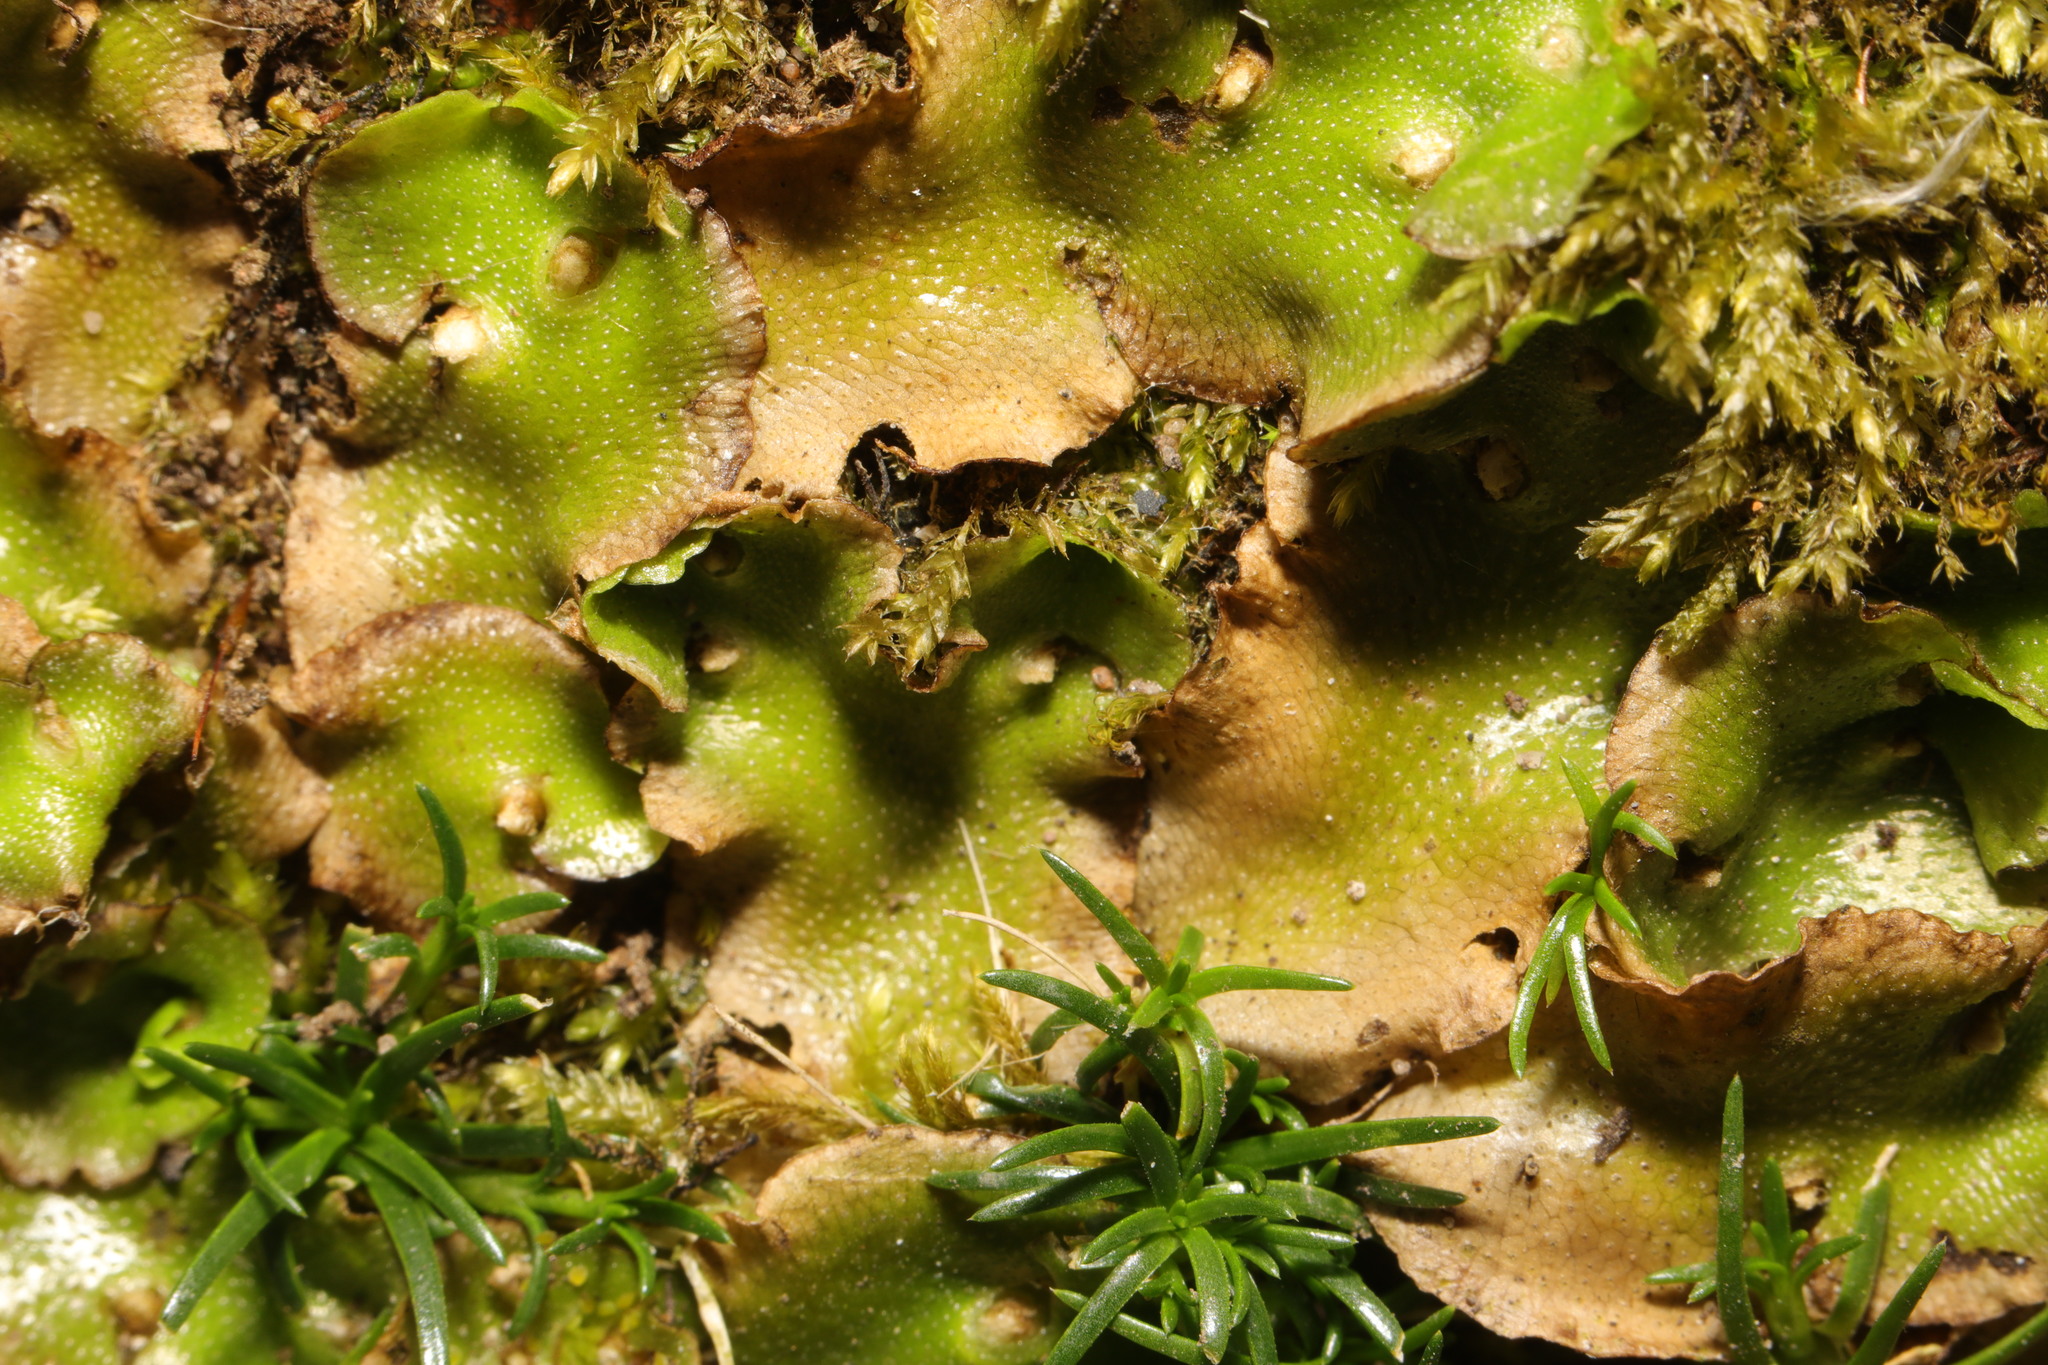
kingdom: Plantae
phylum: Marchantiophyta
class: Marchantiopsida
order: Lunulariales
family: Lunulariaceae
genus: Lunularia
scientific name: Lunularia cruciata
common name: Crescent-cup liverwort
